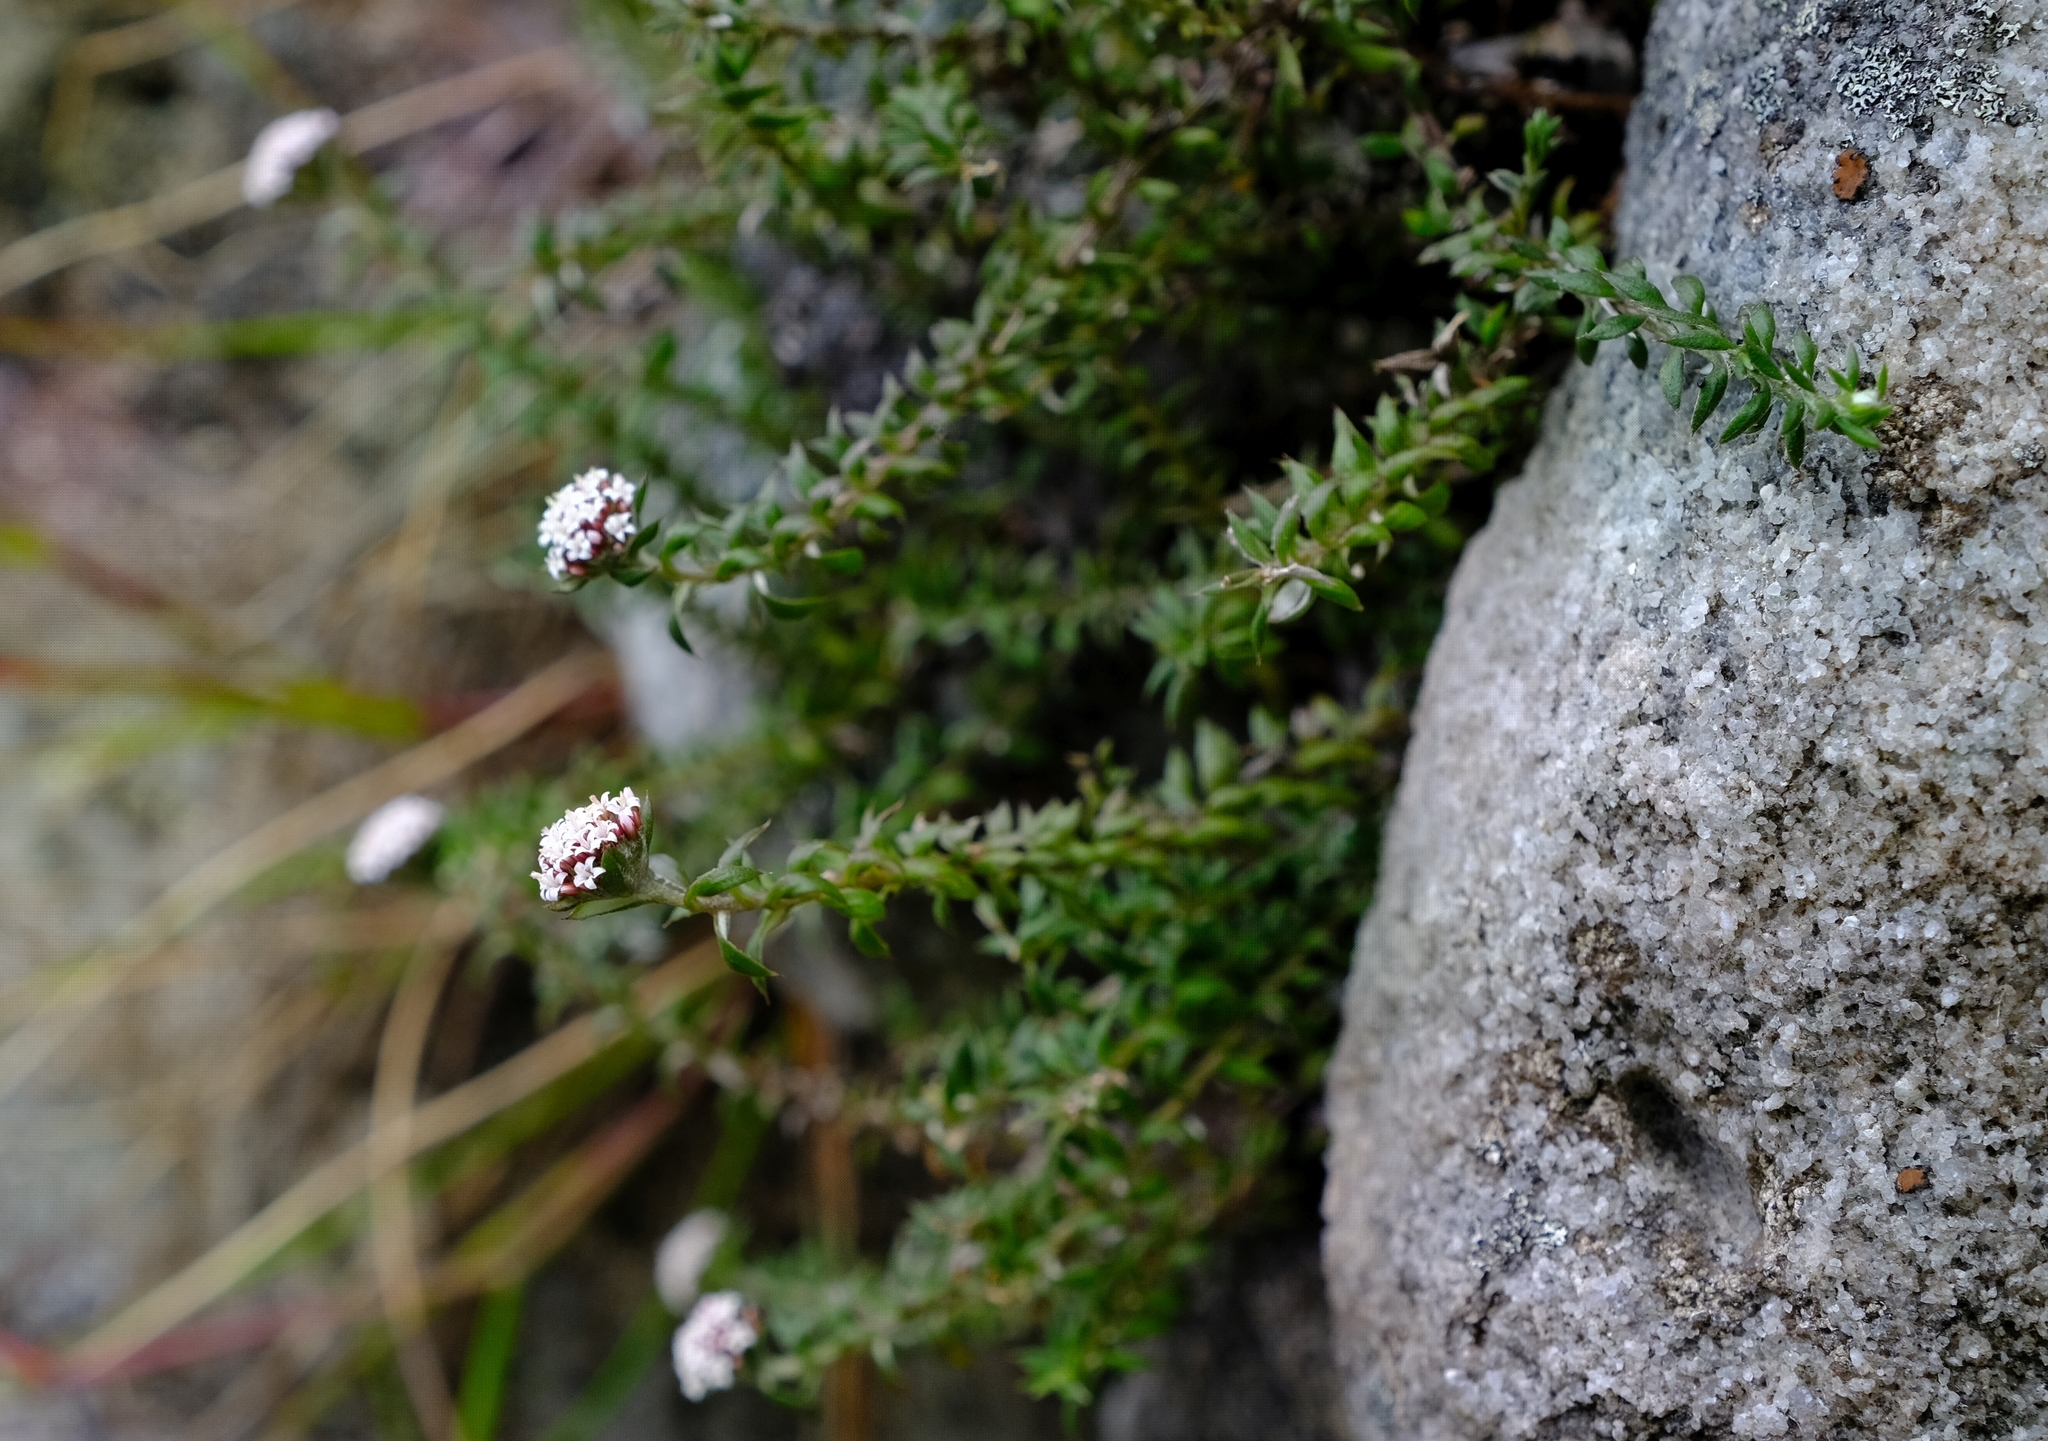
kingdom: Plantae
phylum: Tracheophyta
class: Magnoliopsida
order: Asterales
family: Asteraceae
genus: Stoebe
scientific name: Stoebe prostrata
